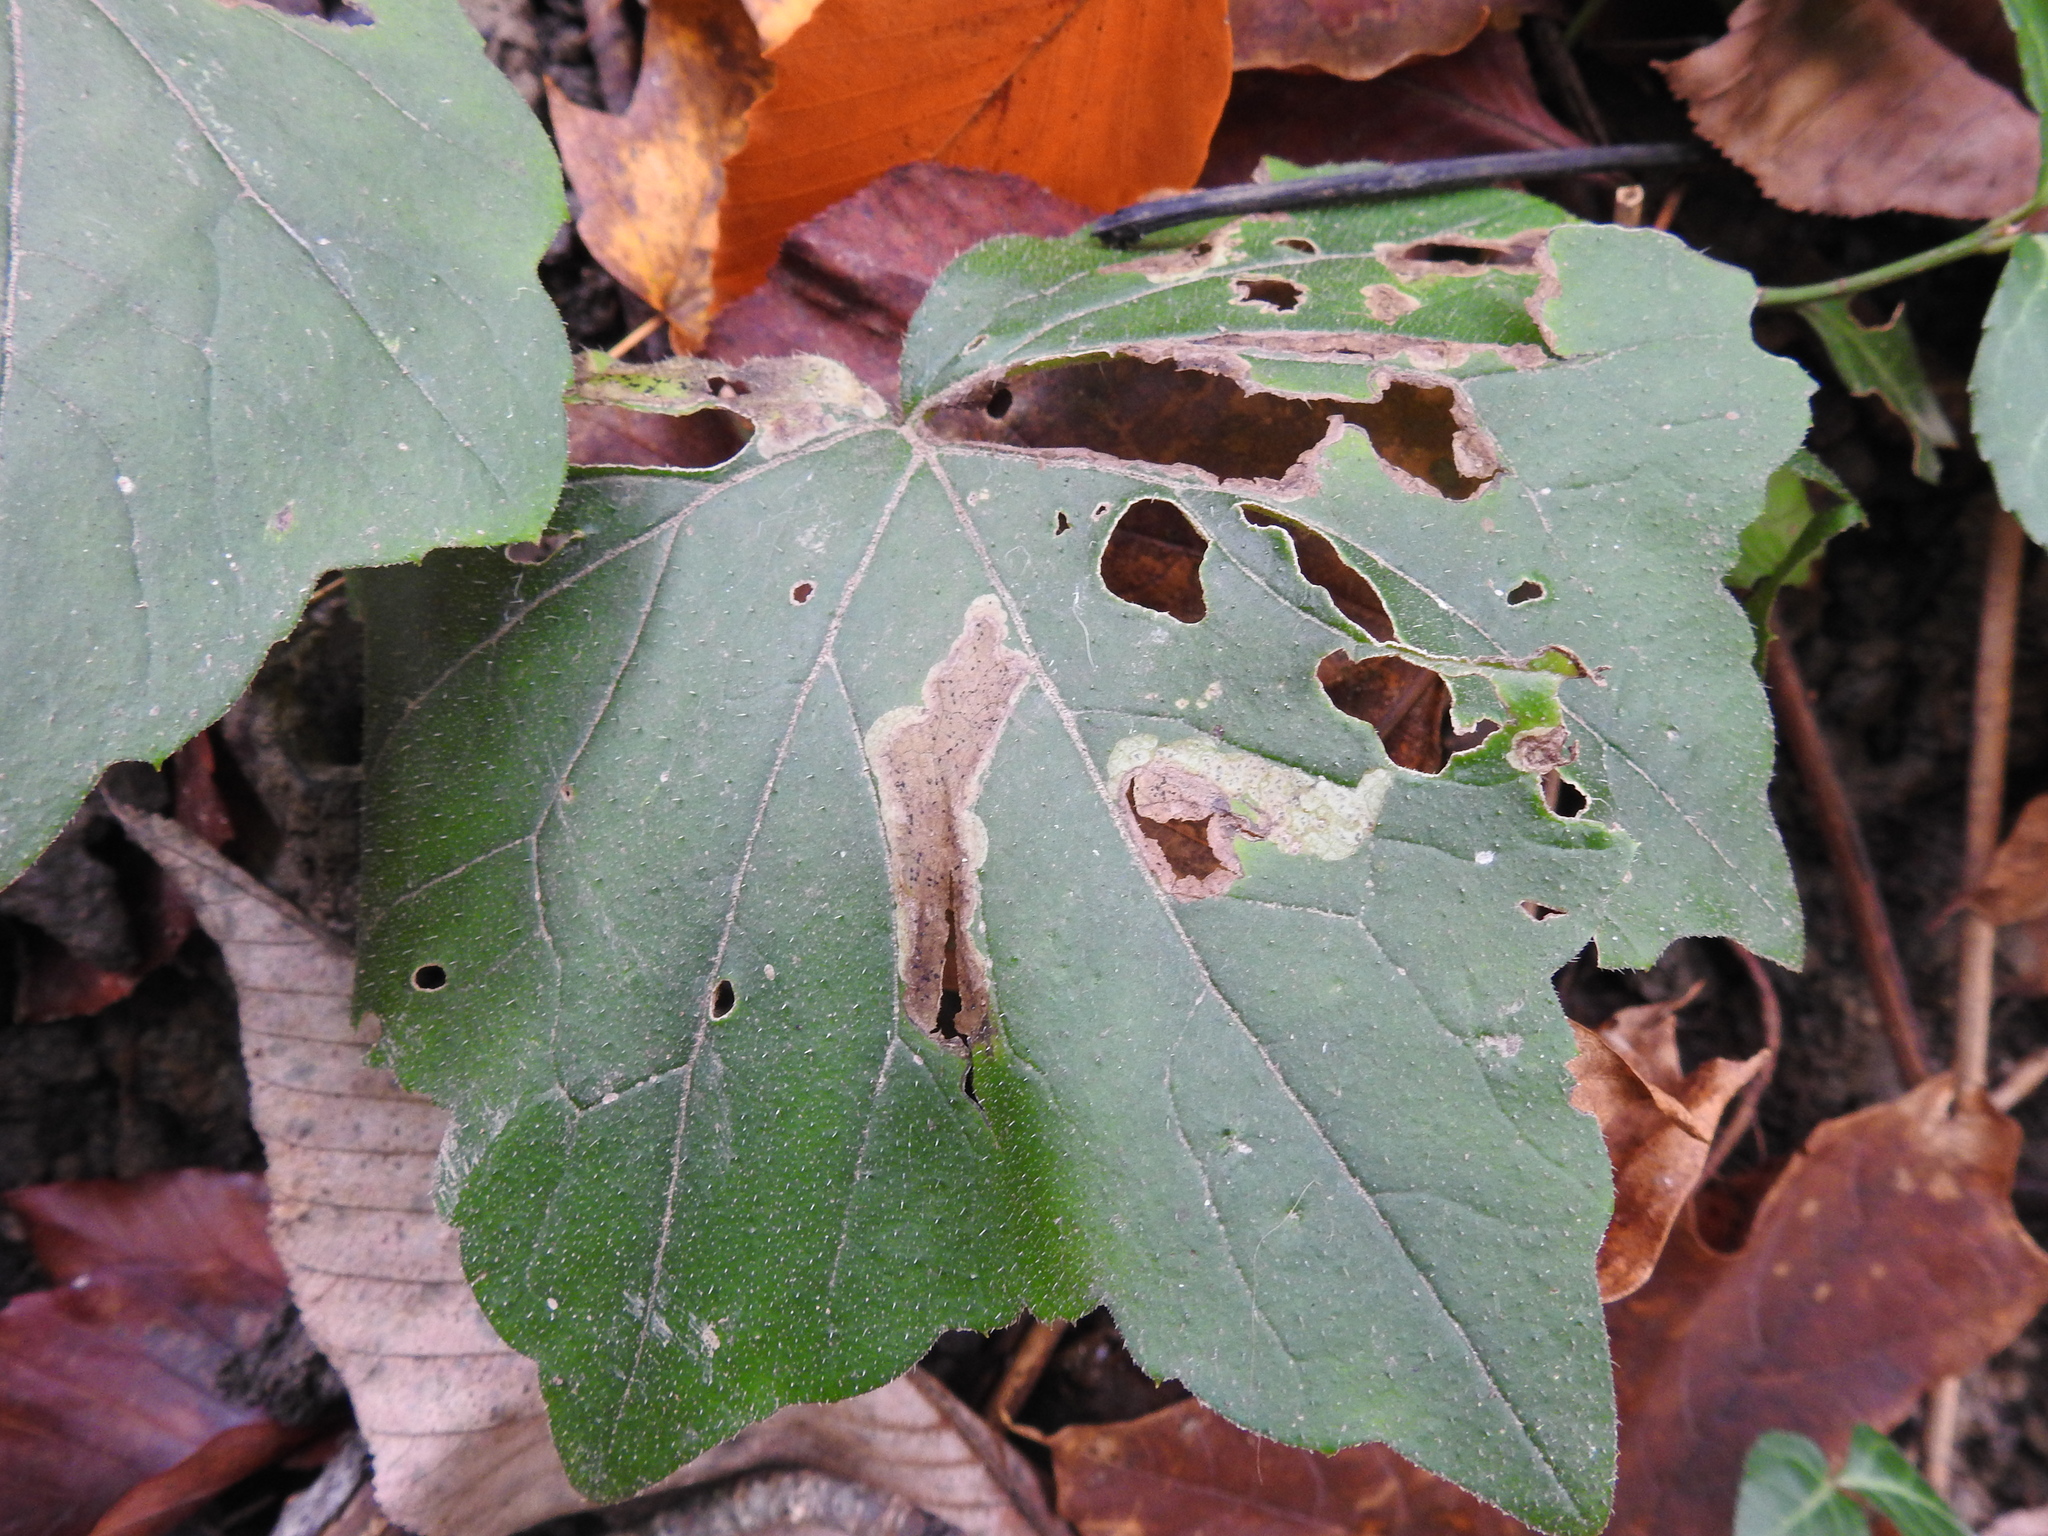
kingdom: Animalia
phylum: Arthropoda
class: Insecta
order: Diptera
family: Agromyzidae
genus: Phytomyza
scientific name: Phytomyza hydrophyllivora
